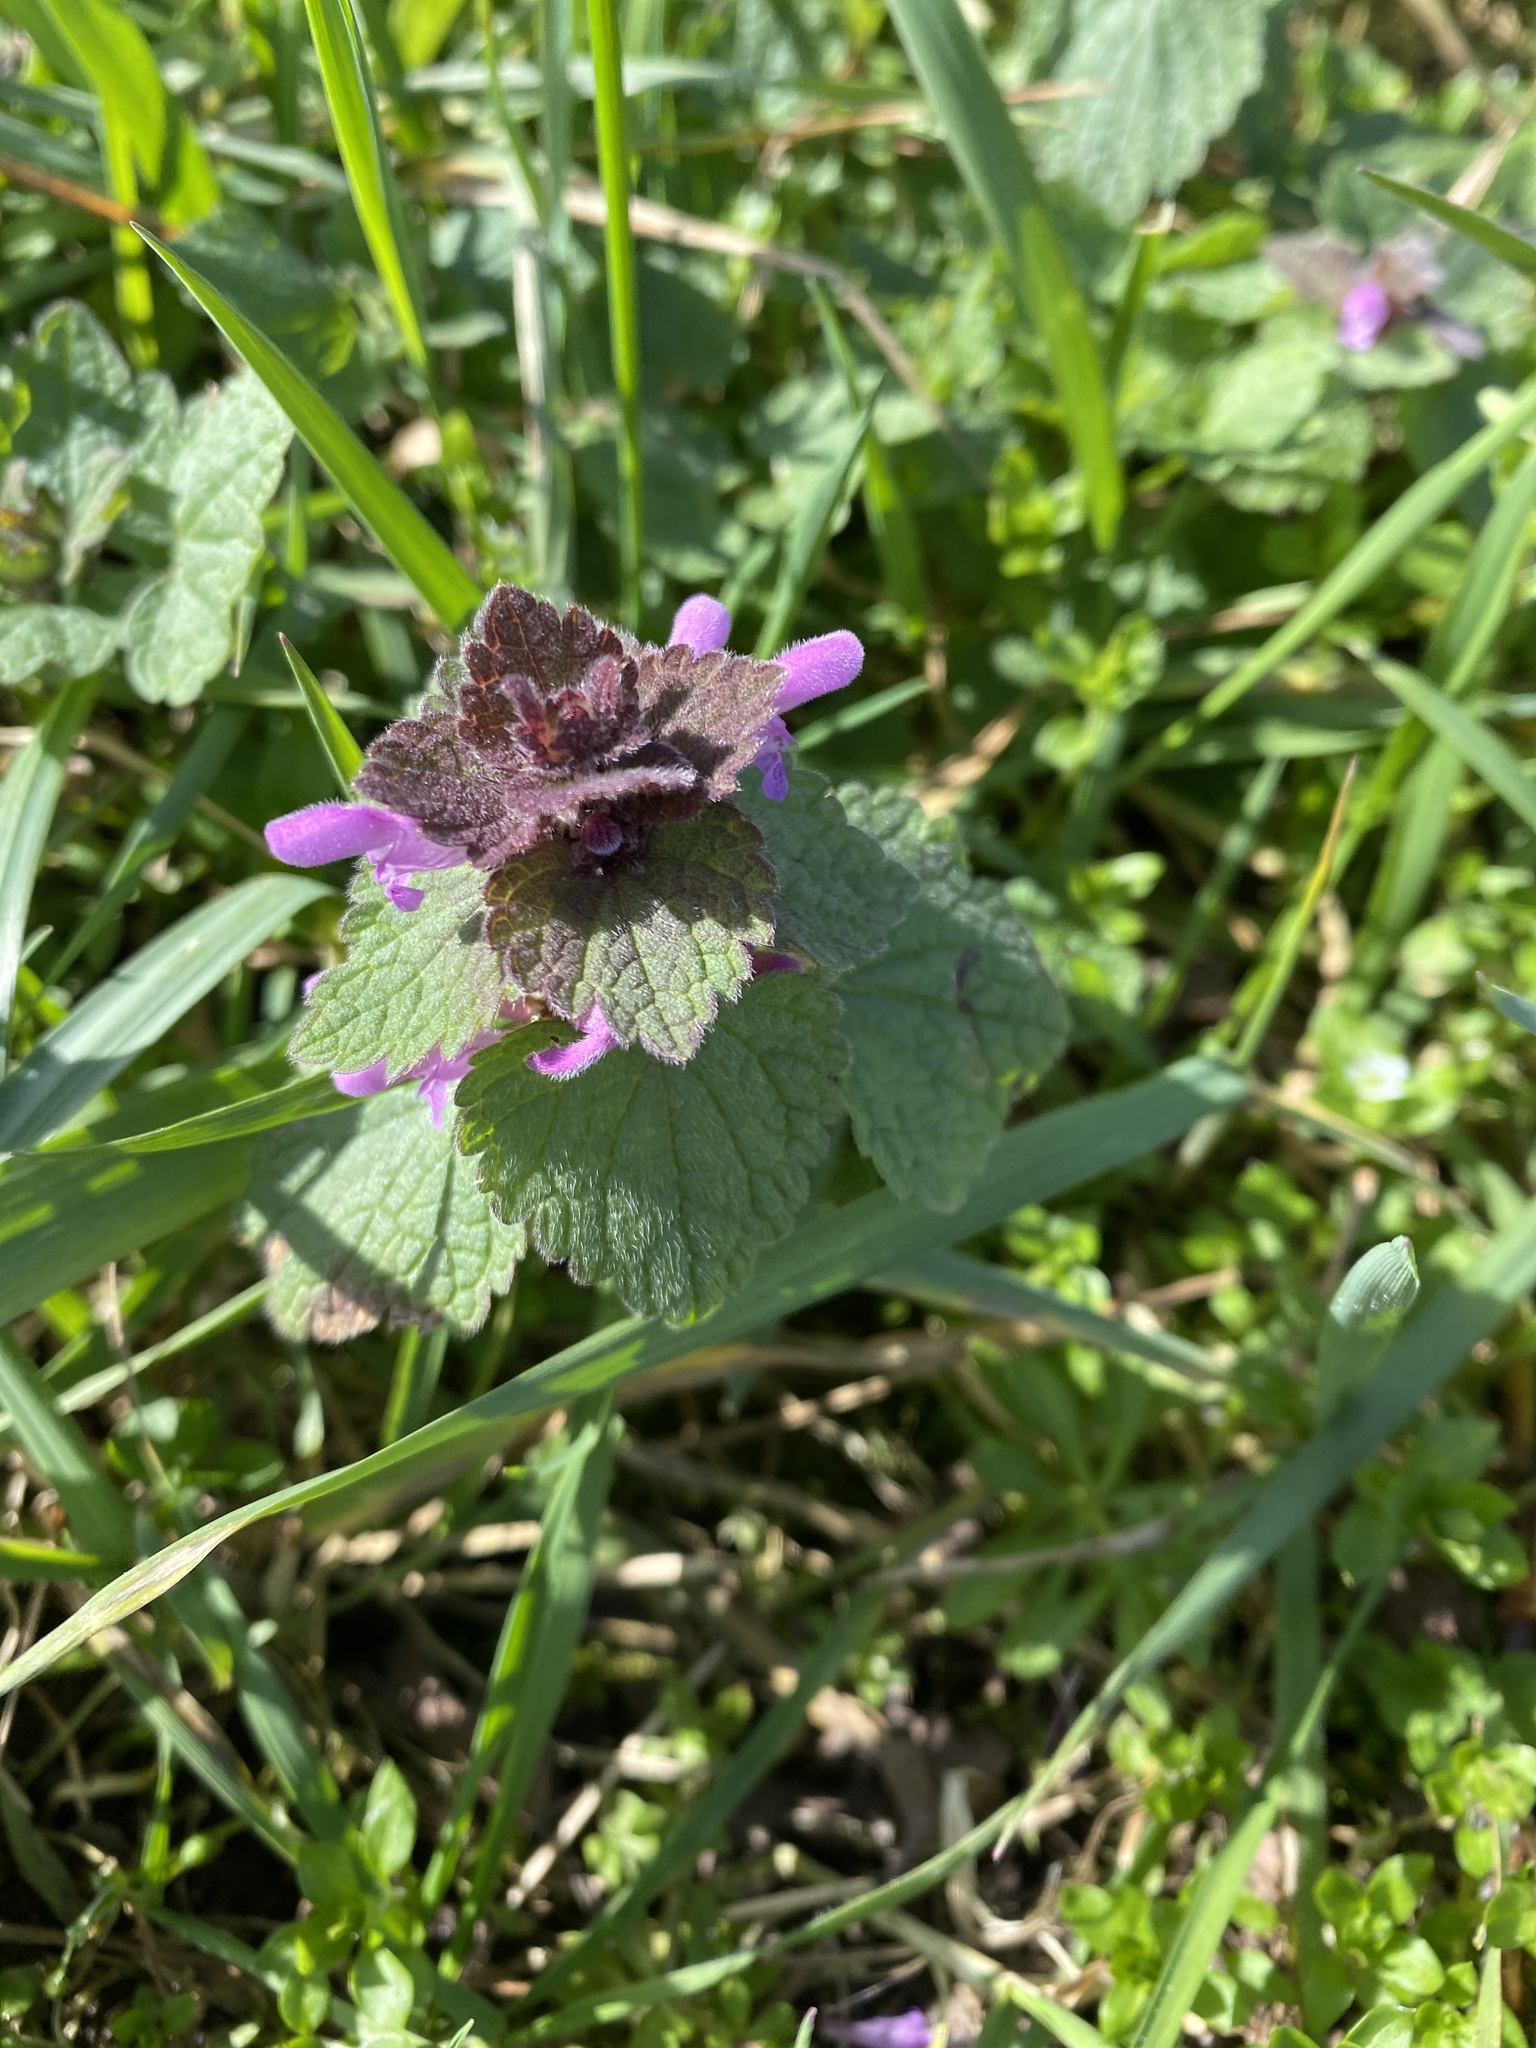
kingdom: Plantae
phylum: Tracheophyta
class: Magnoliopsida
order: Lamiales
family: Lamiaceae
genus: Lamium
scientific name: Lamium purpureum
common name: Red dead-nettle
